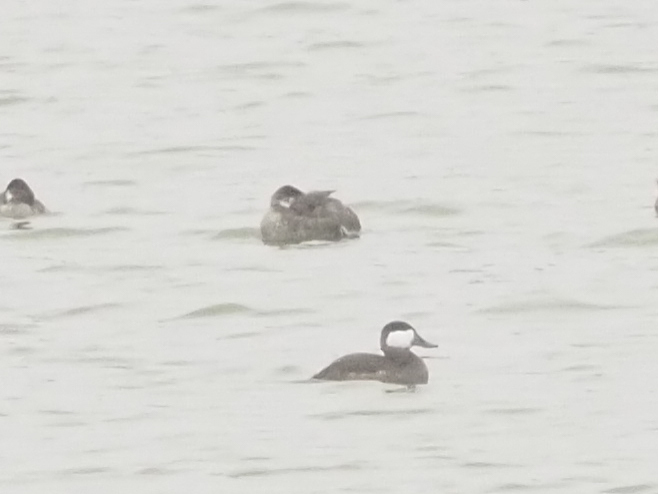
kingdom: Animalia
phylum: Chordata
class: Aves
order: Anseriformes
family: Anatidae
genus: Oxyura
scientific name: Oxyura jamaicensis
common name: Ruddy duck
